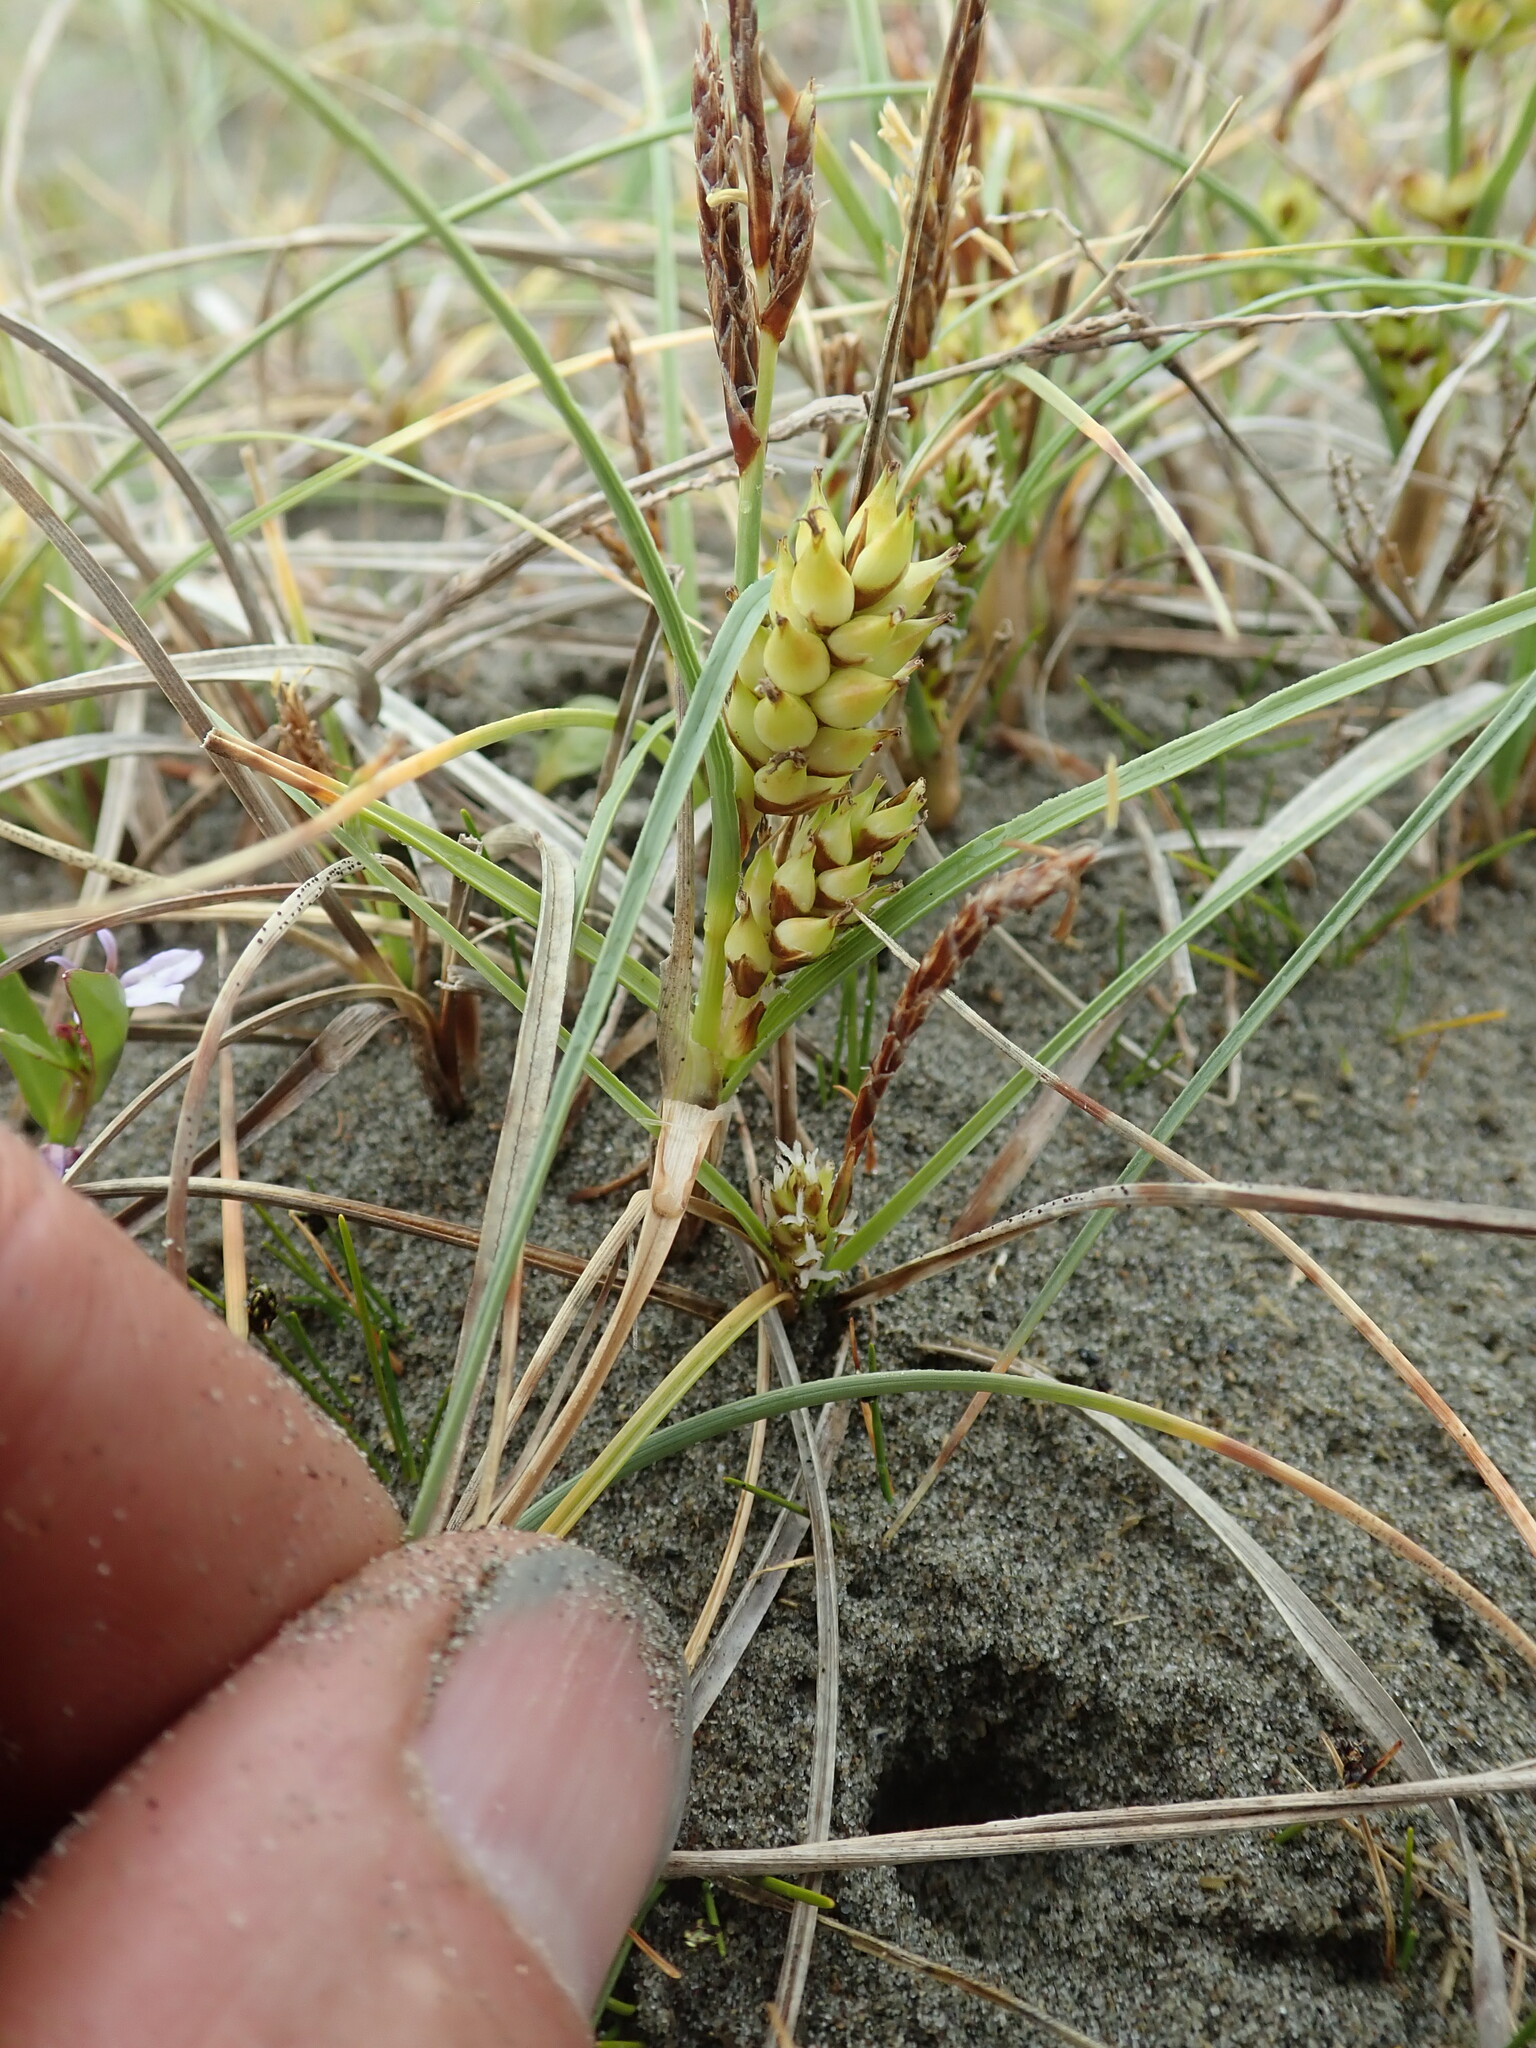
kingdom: Plantae
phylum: Tracheophyta
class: Liliopsida
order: Poales
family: Cyperaceae
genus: Carex
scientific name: Carex pumila
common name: Dwarf sedge
